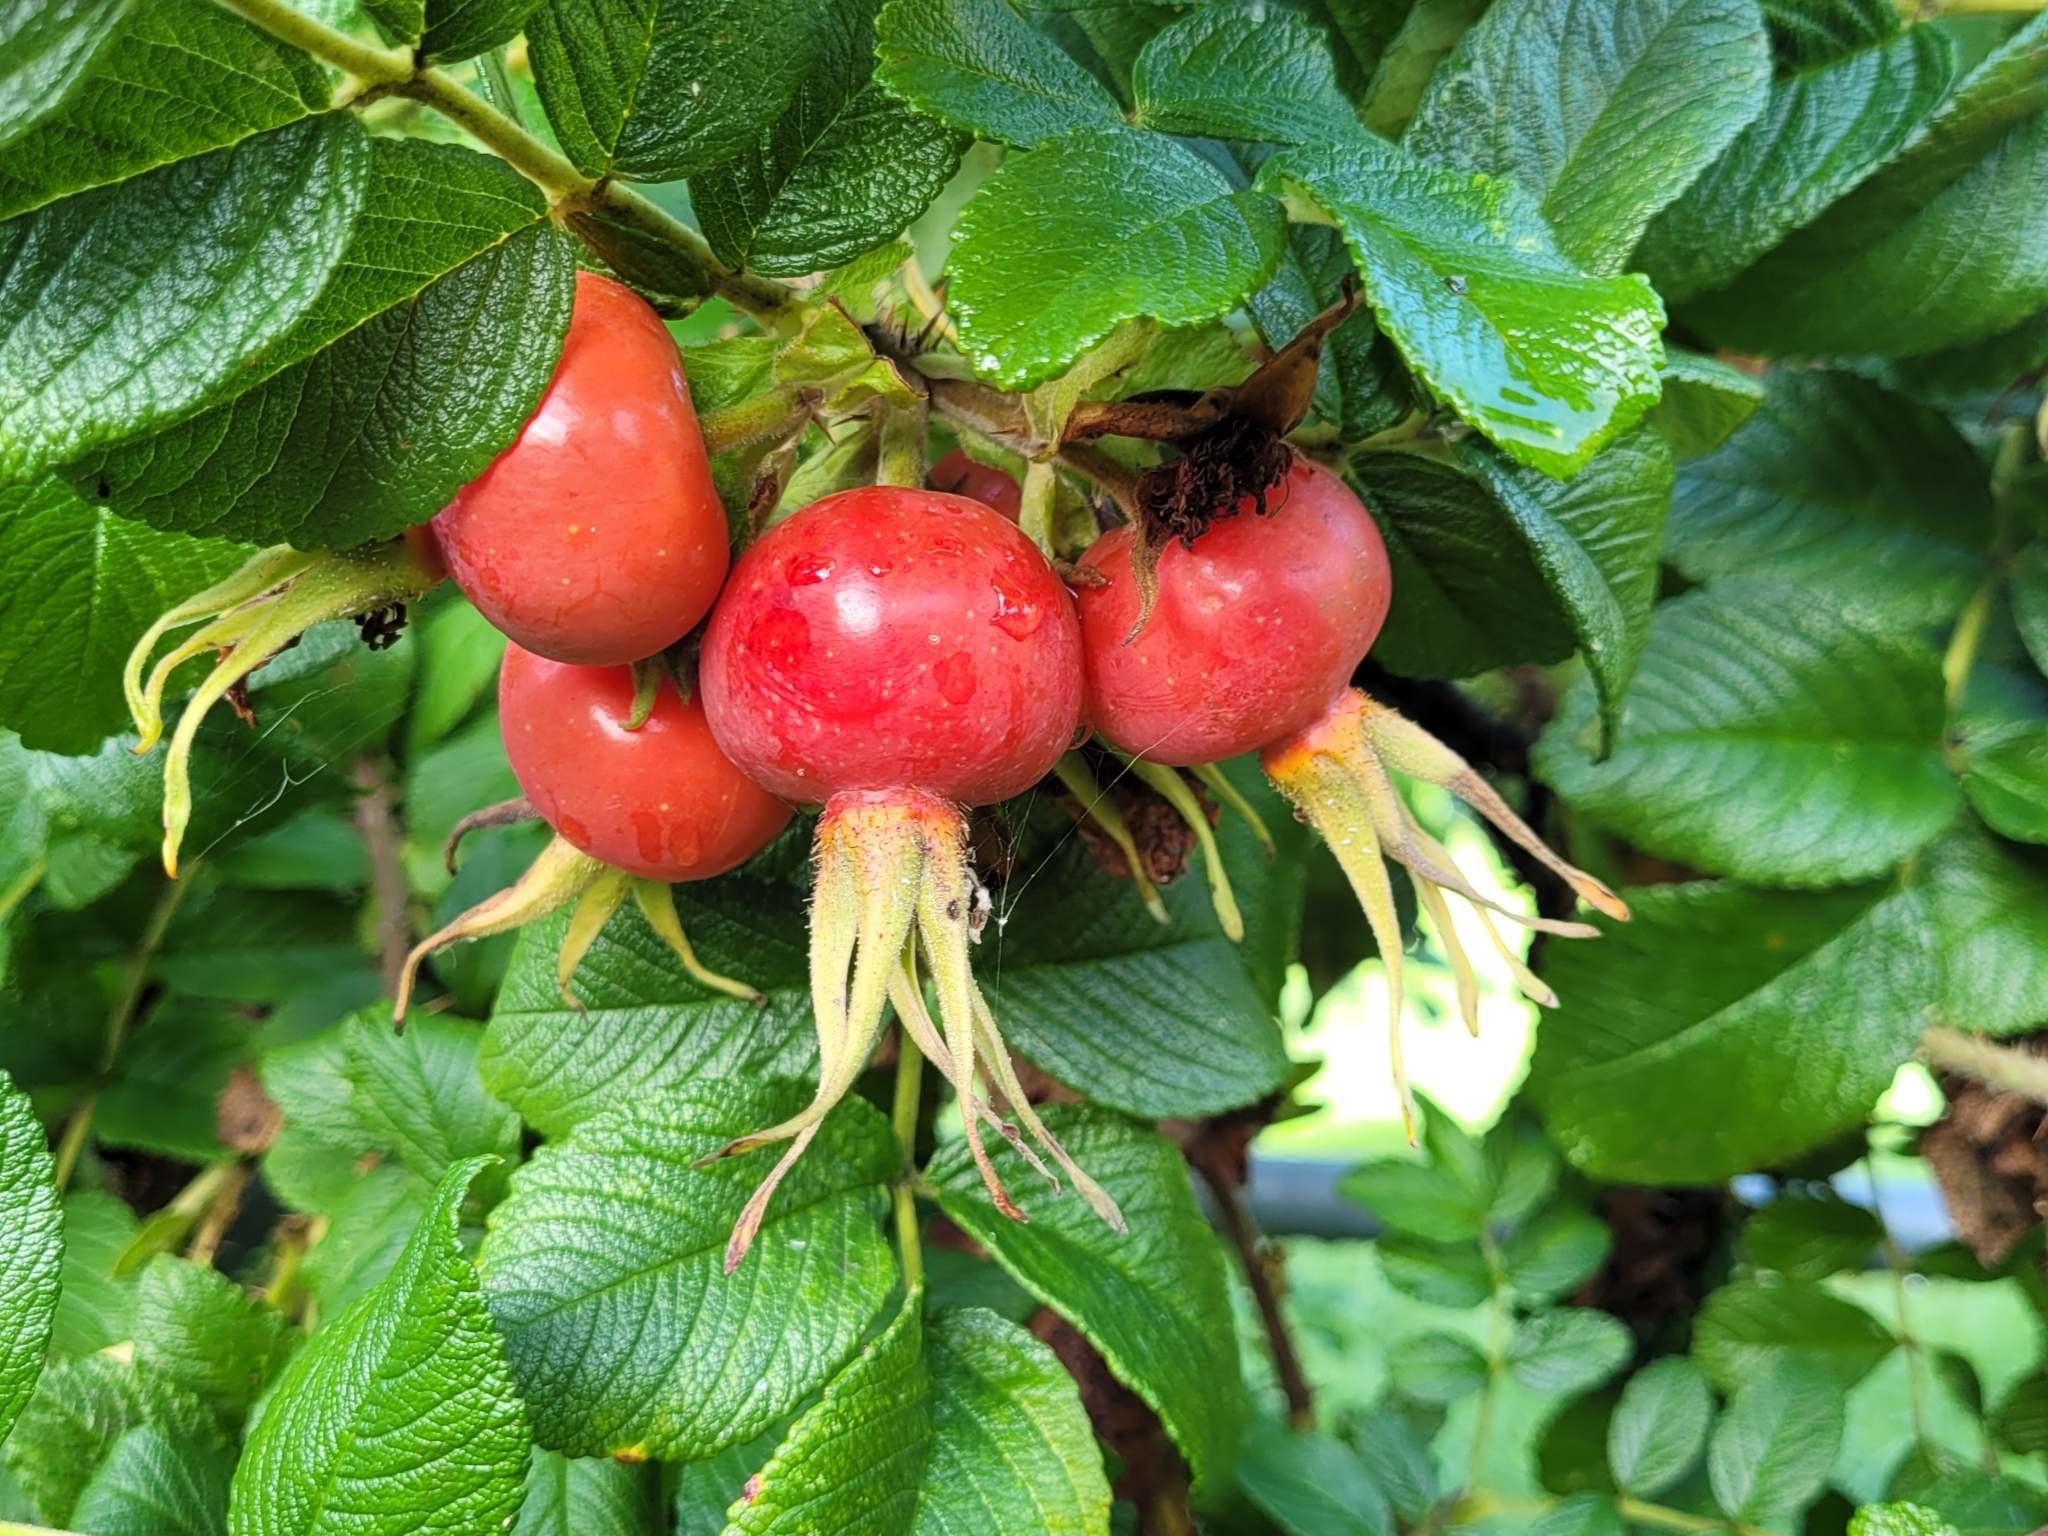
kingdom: Plantae
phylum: Tracheophyta
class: Magnoliopsida
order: Rosales
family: Rosaceae
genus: Rosa
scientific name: Rosa rugosa
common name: Japanese rose
